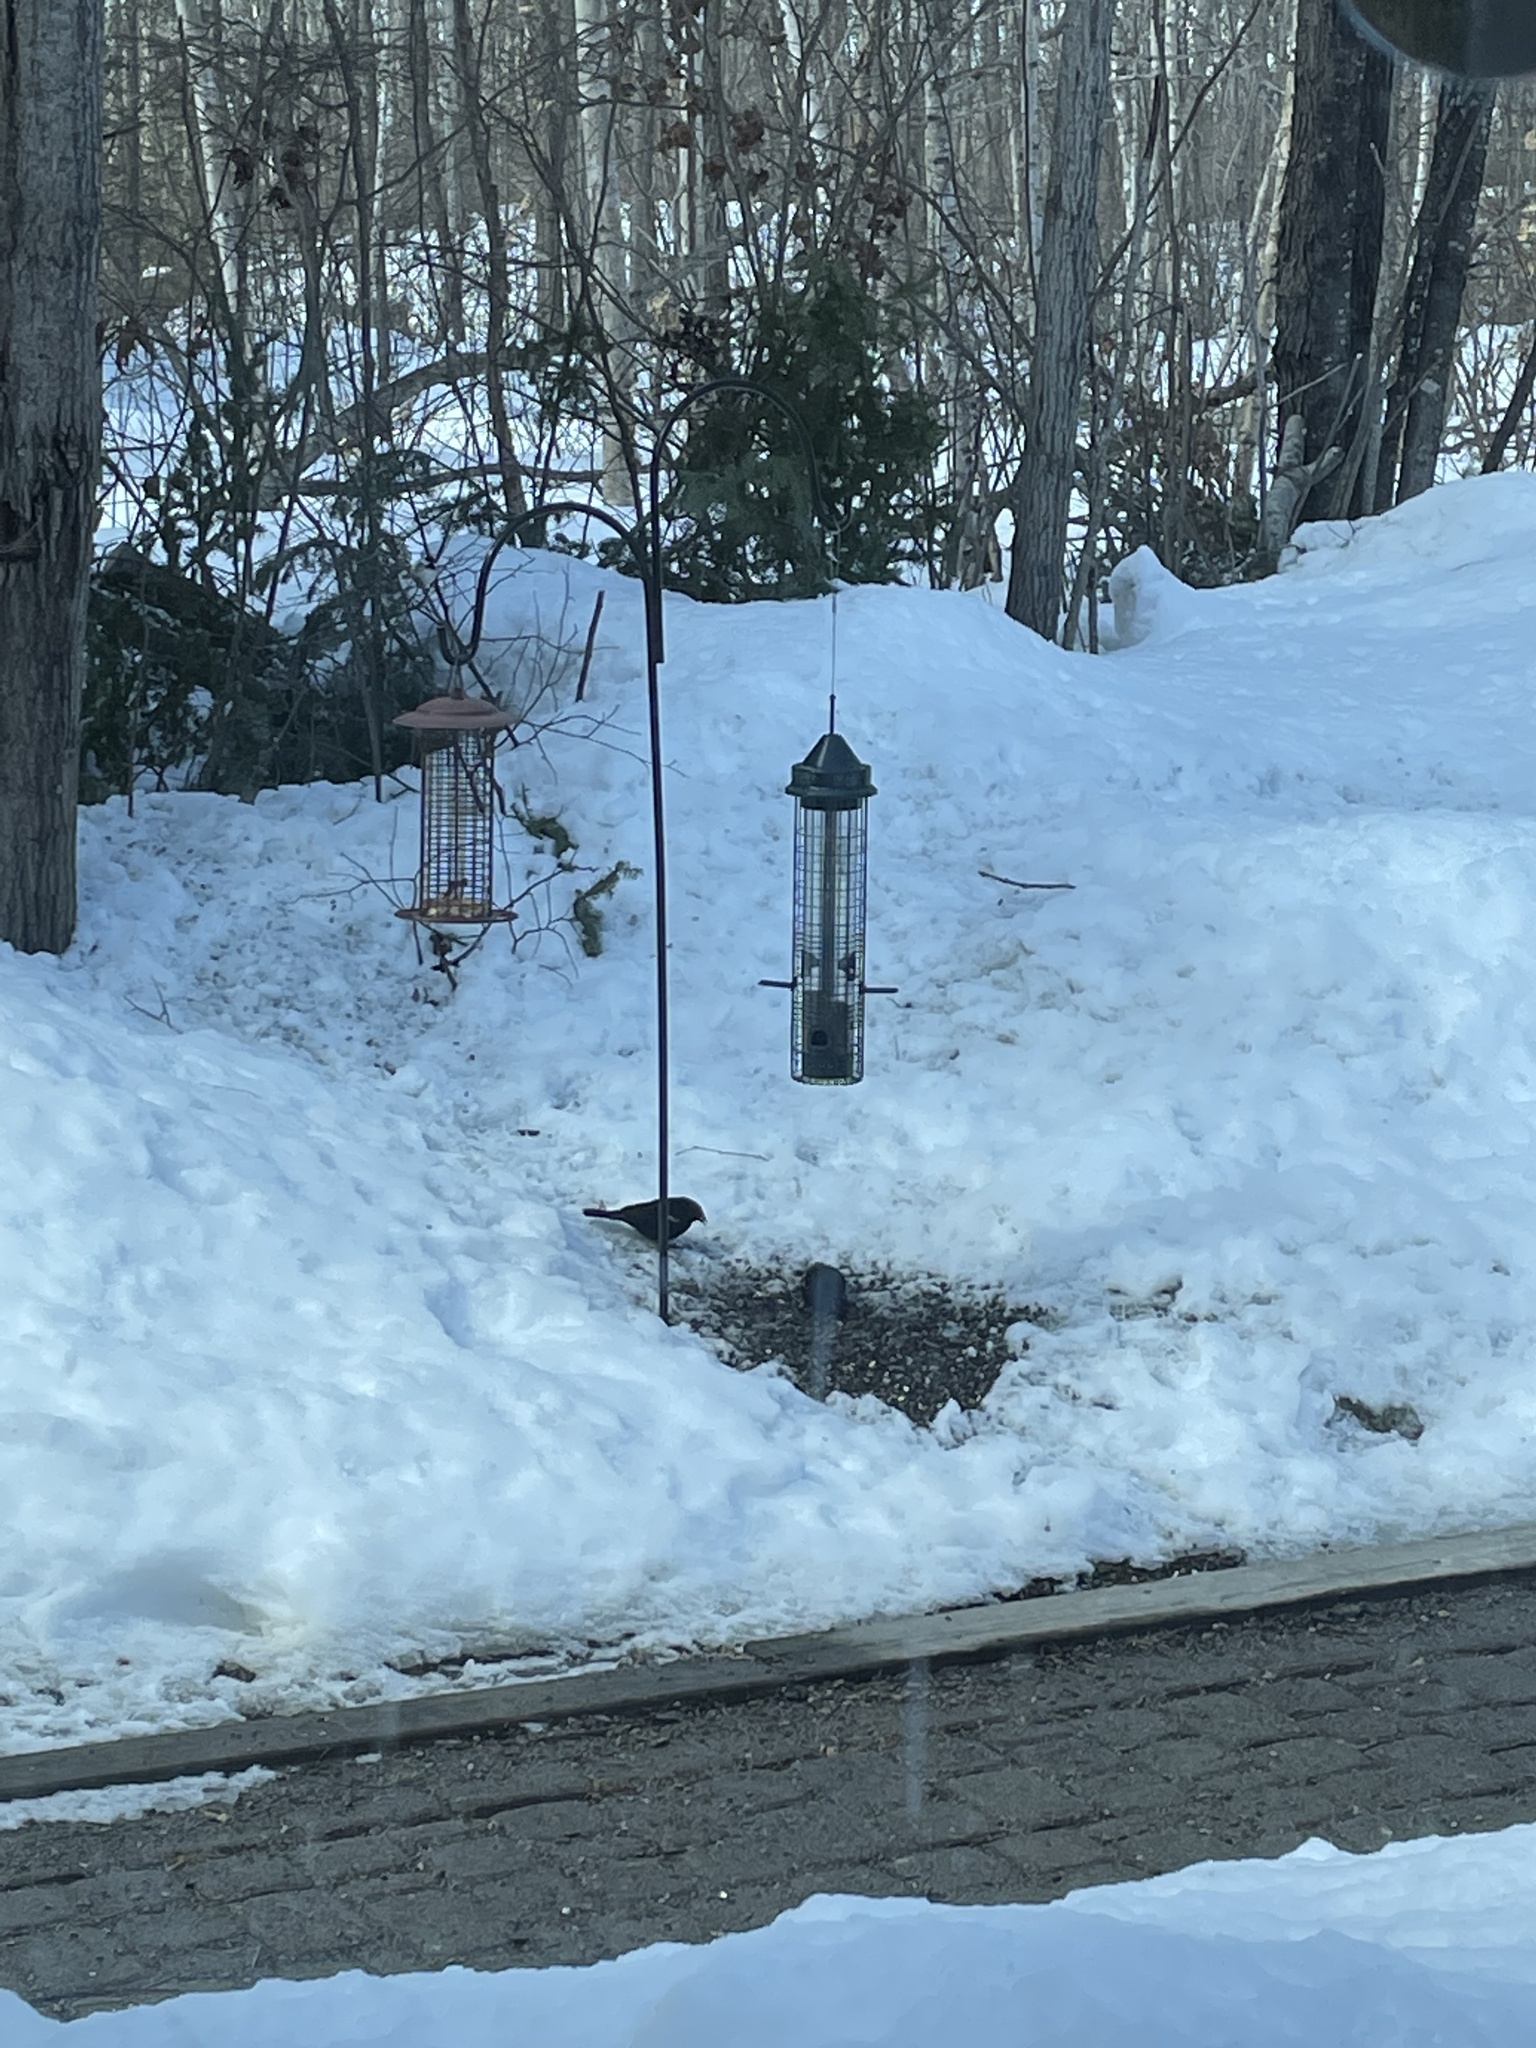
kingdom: Animalia
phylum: Chordata
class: Aves
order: Passeriformes
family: Icteridae
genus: Agelaius
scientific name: Agelaius phoeniceus
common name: Red-winged blackbird
